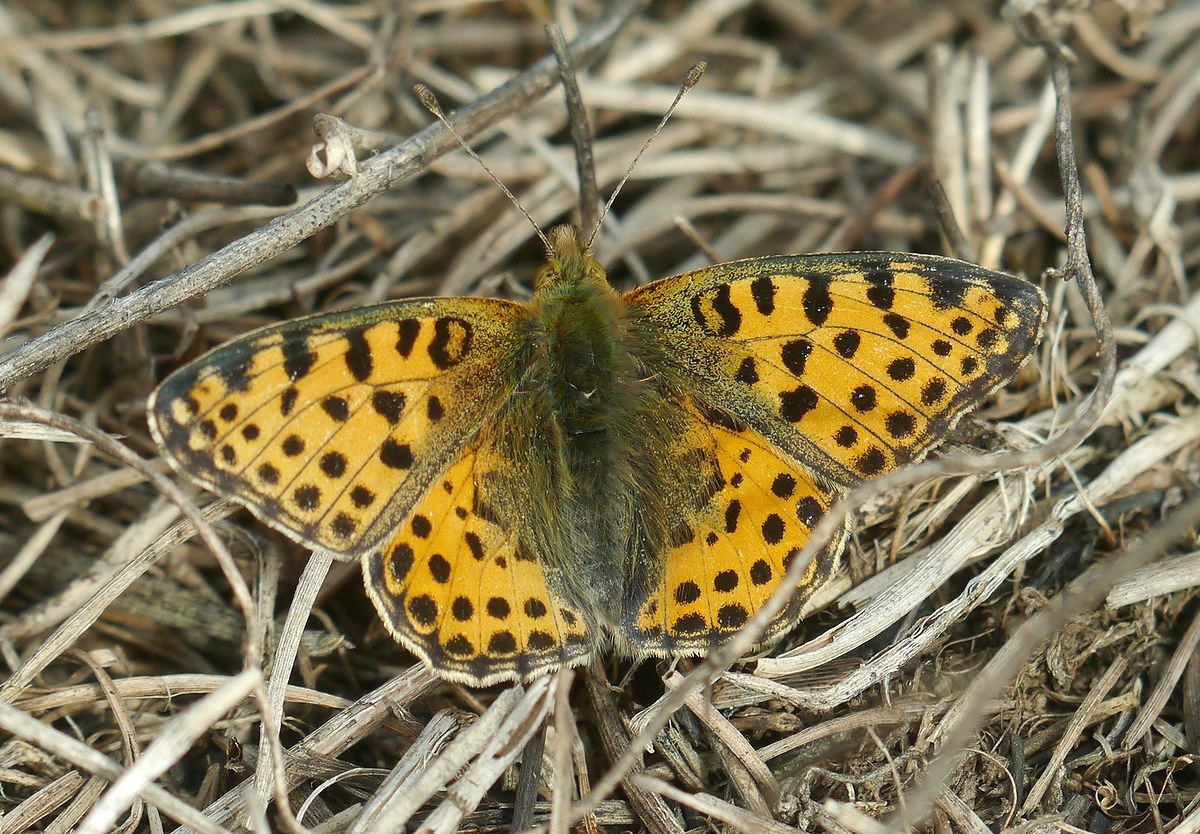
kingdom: Animalia
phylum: Arthropoda
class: Insecta
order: Lepidoptera
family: Nymphalidae
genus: Issoria
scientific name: Issoria lathonia
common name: Queen of spain fritillary
